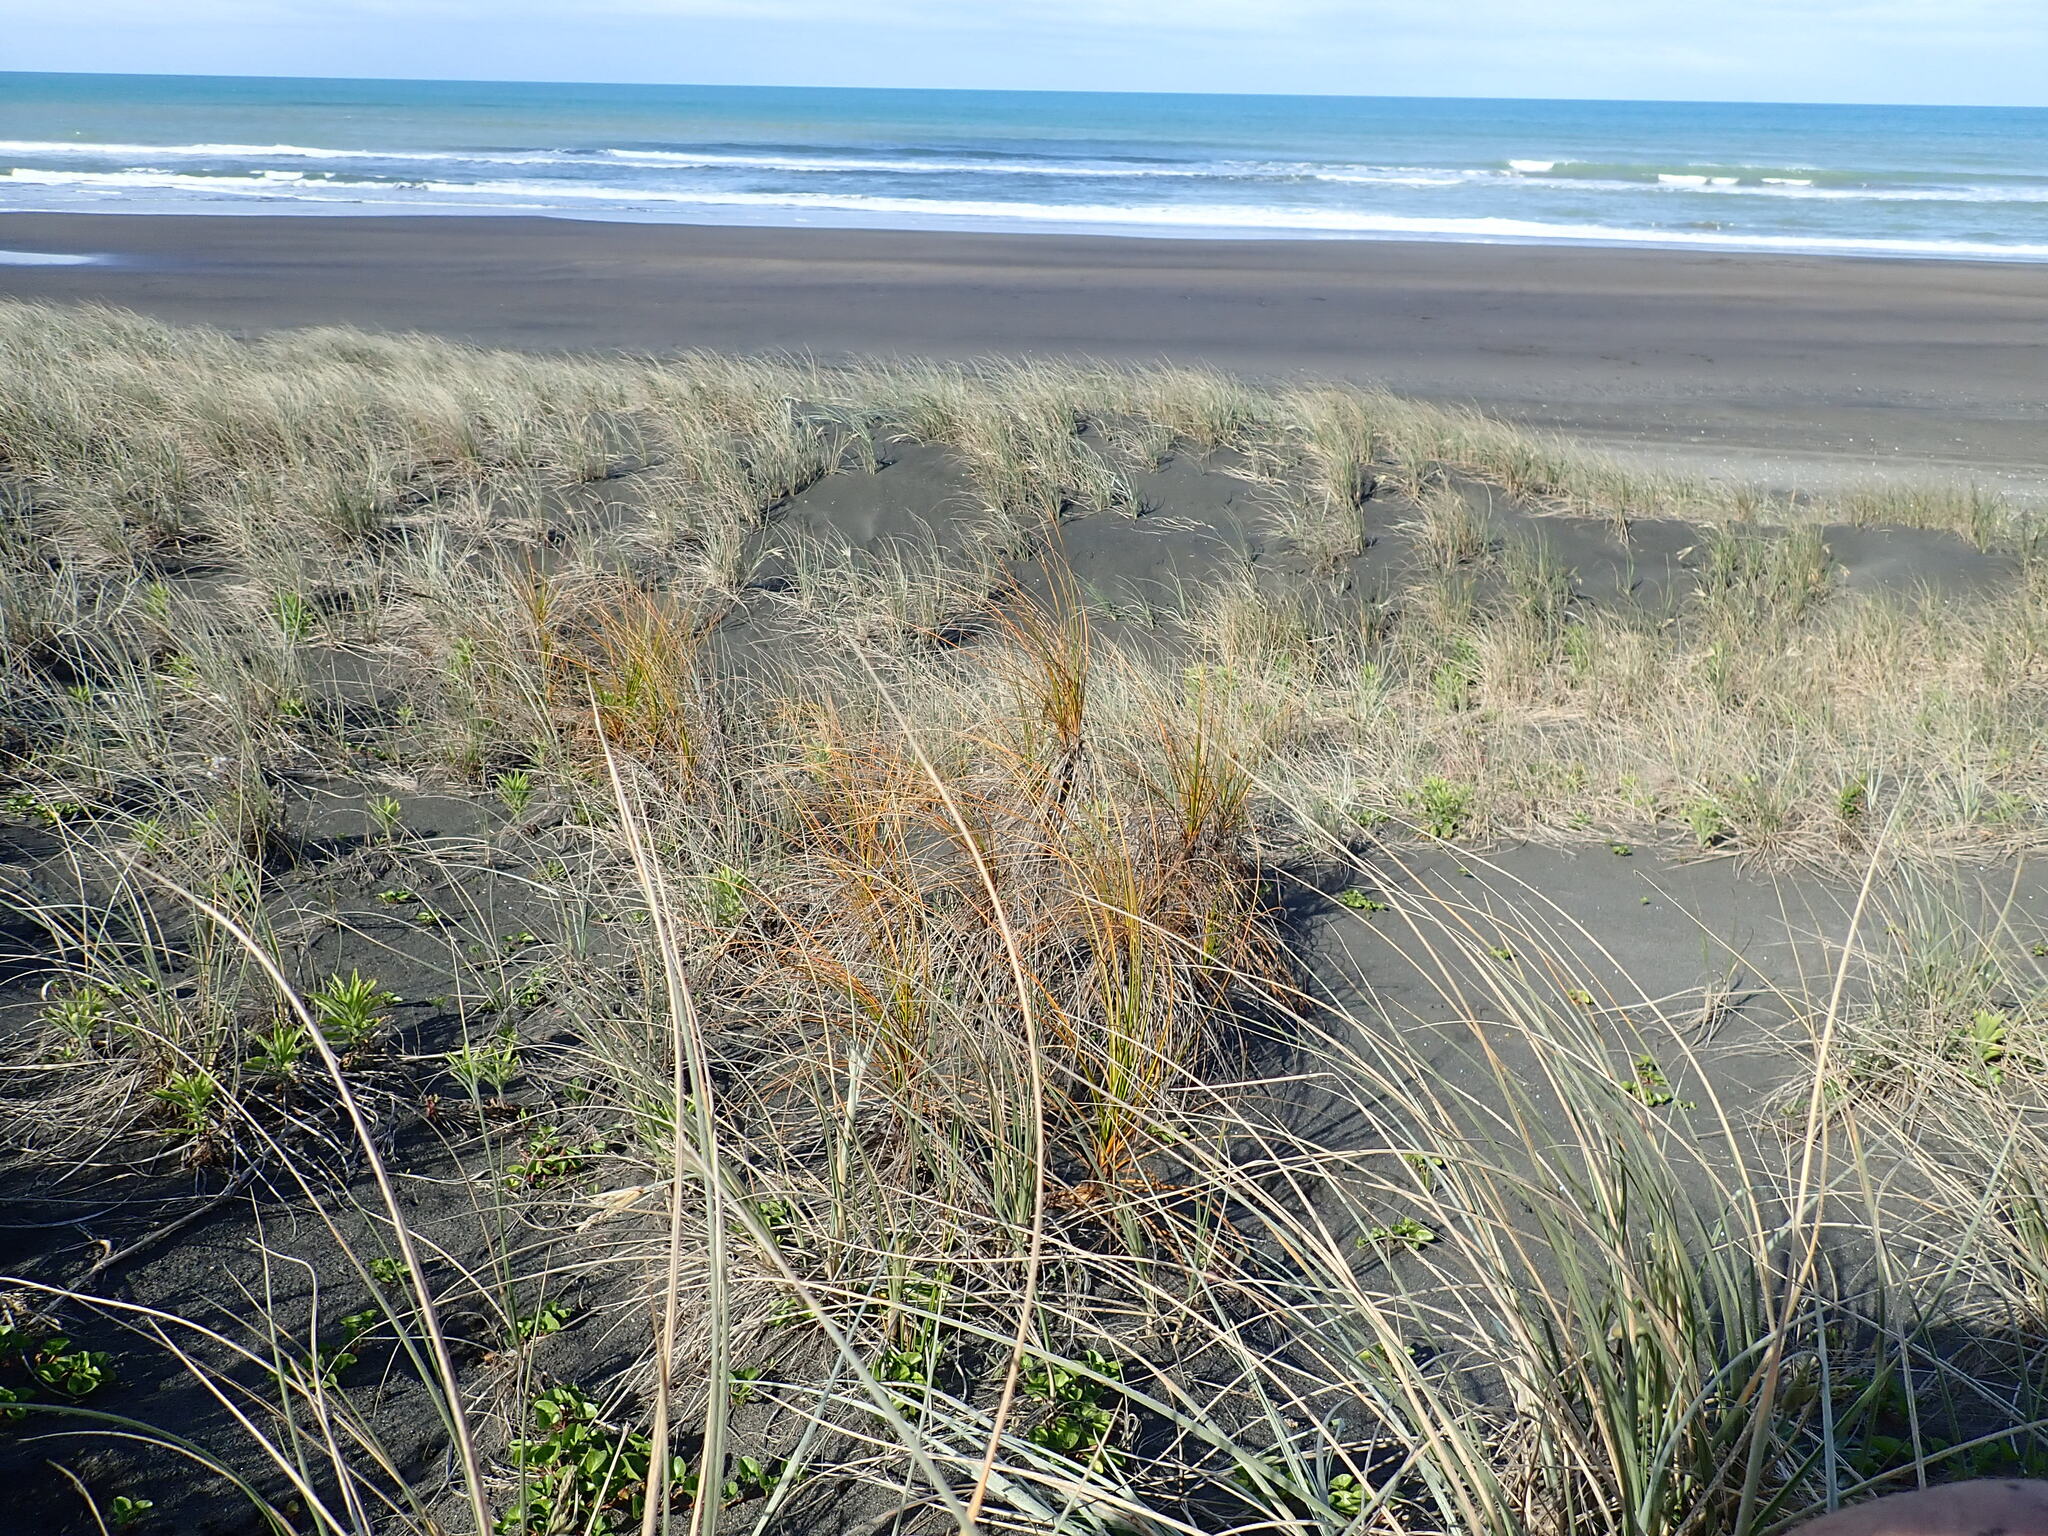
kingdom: Plantae
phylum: Tracheophyta
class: Liliopsida
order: Poales
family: Cyperaceae
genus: Ficinia
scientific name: Ficinia spiralis
